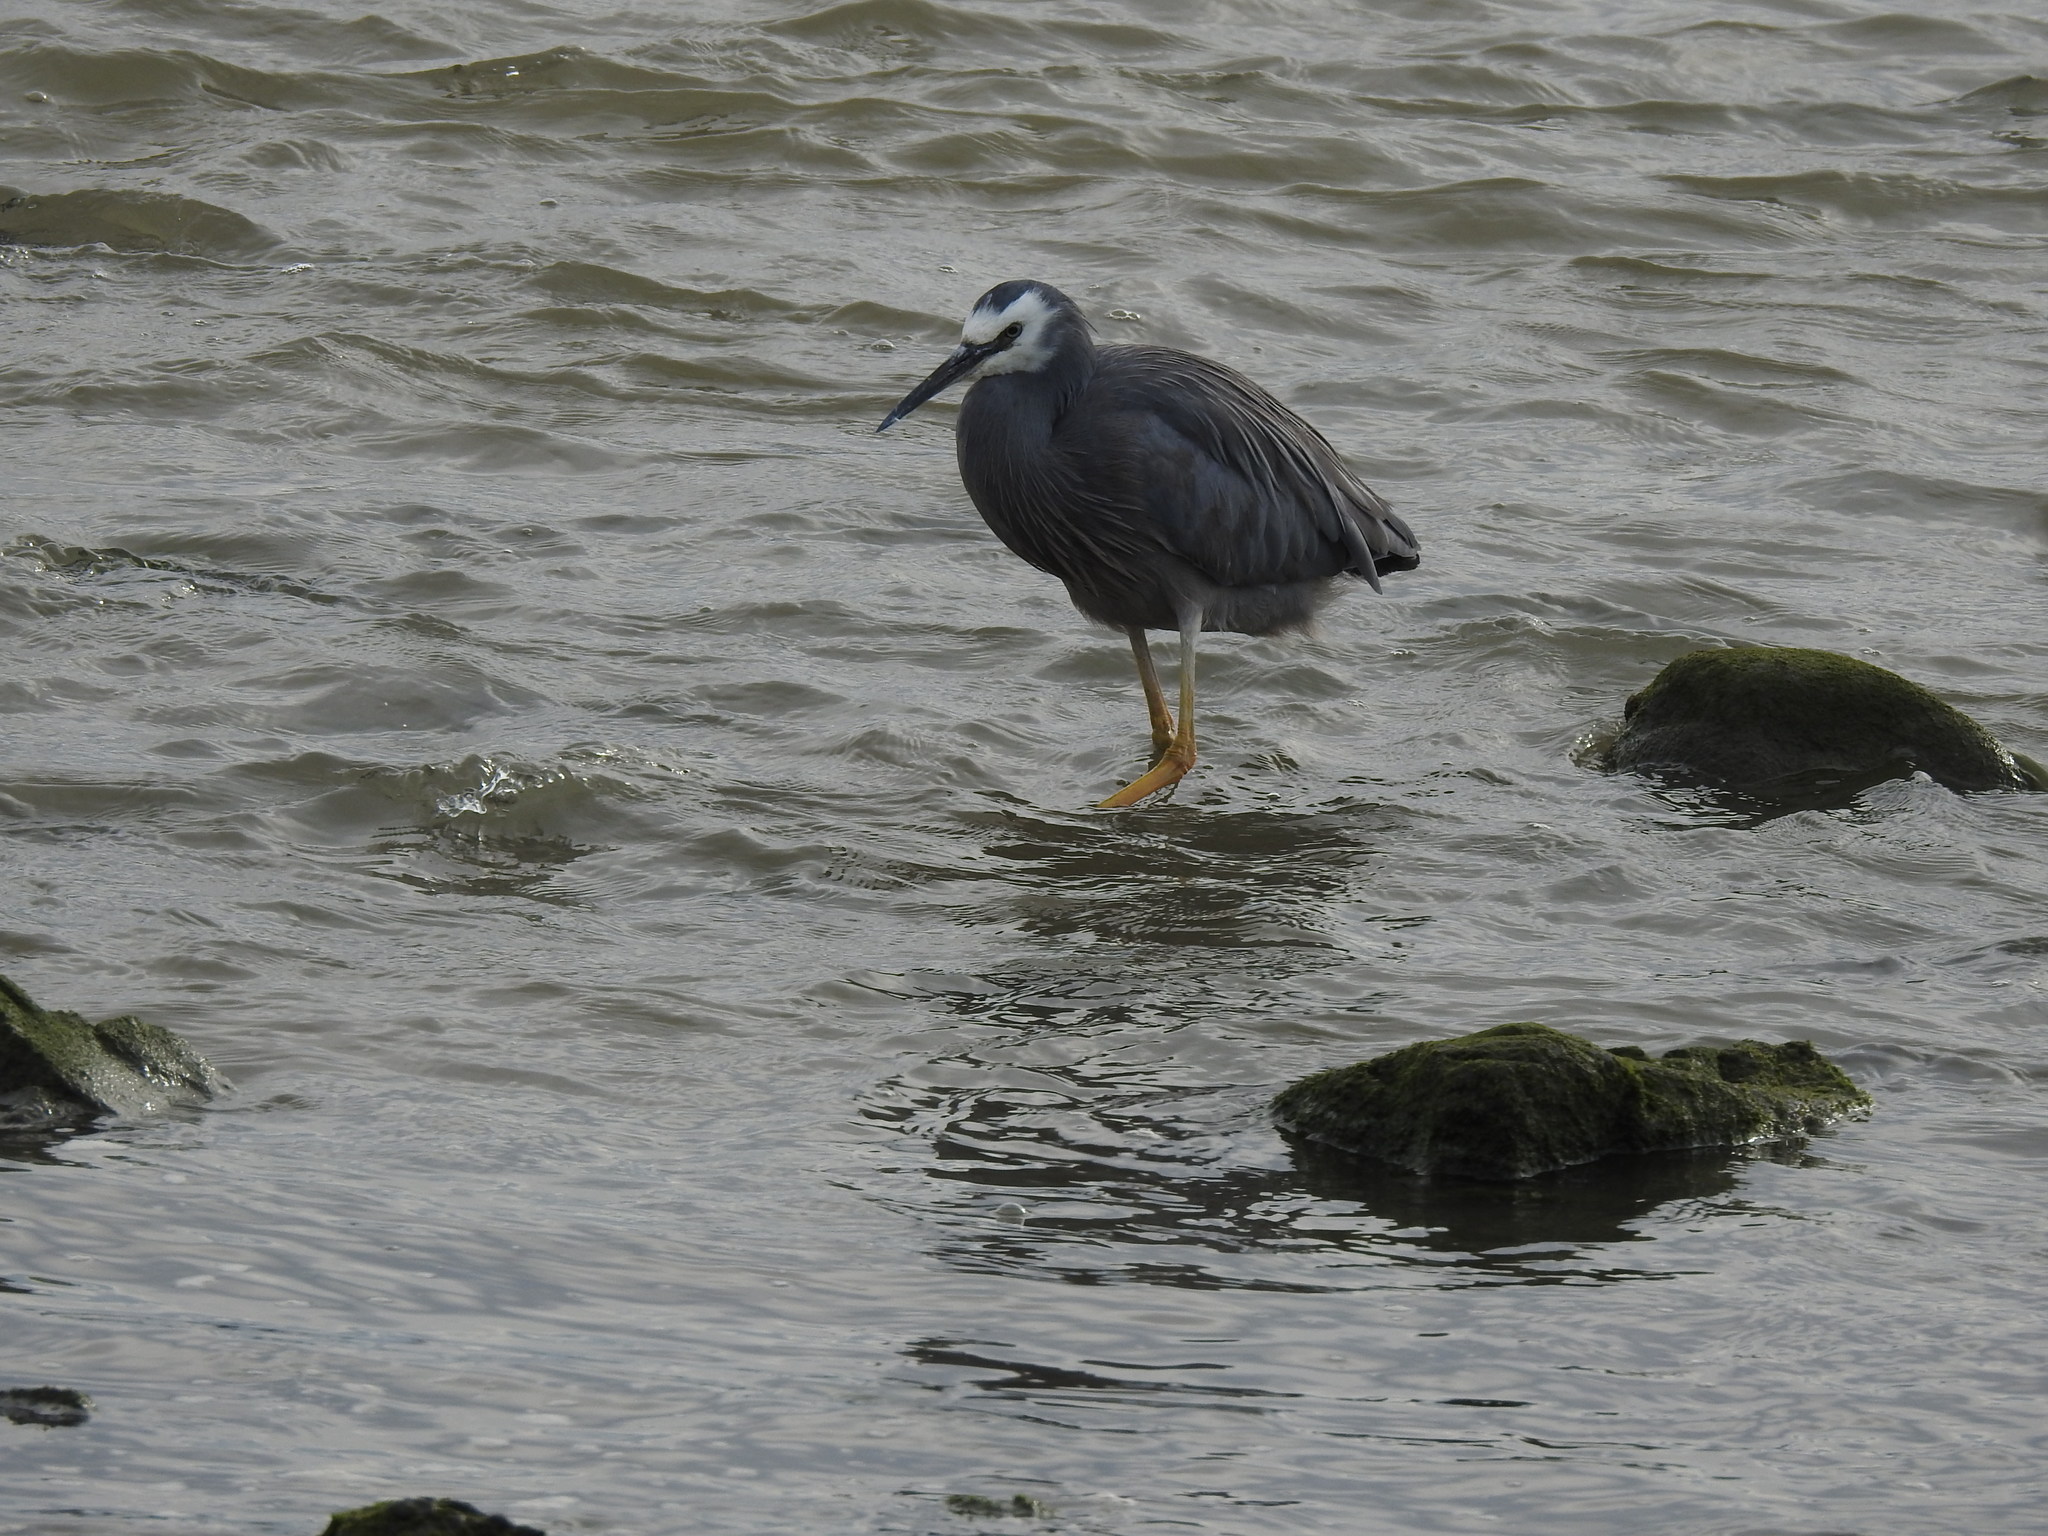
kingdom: Animalia
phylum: Chordata
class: Aves
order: Pelecaniformes
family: Ardeidae
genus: Egretta
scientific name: Egretta novaehollandiae
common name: White-faced heron
